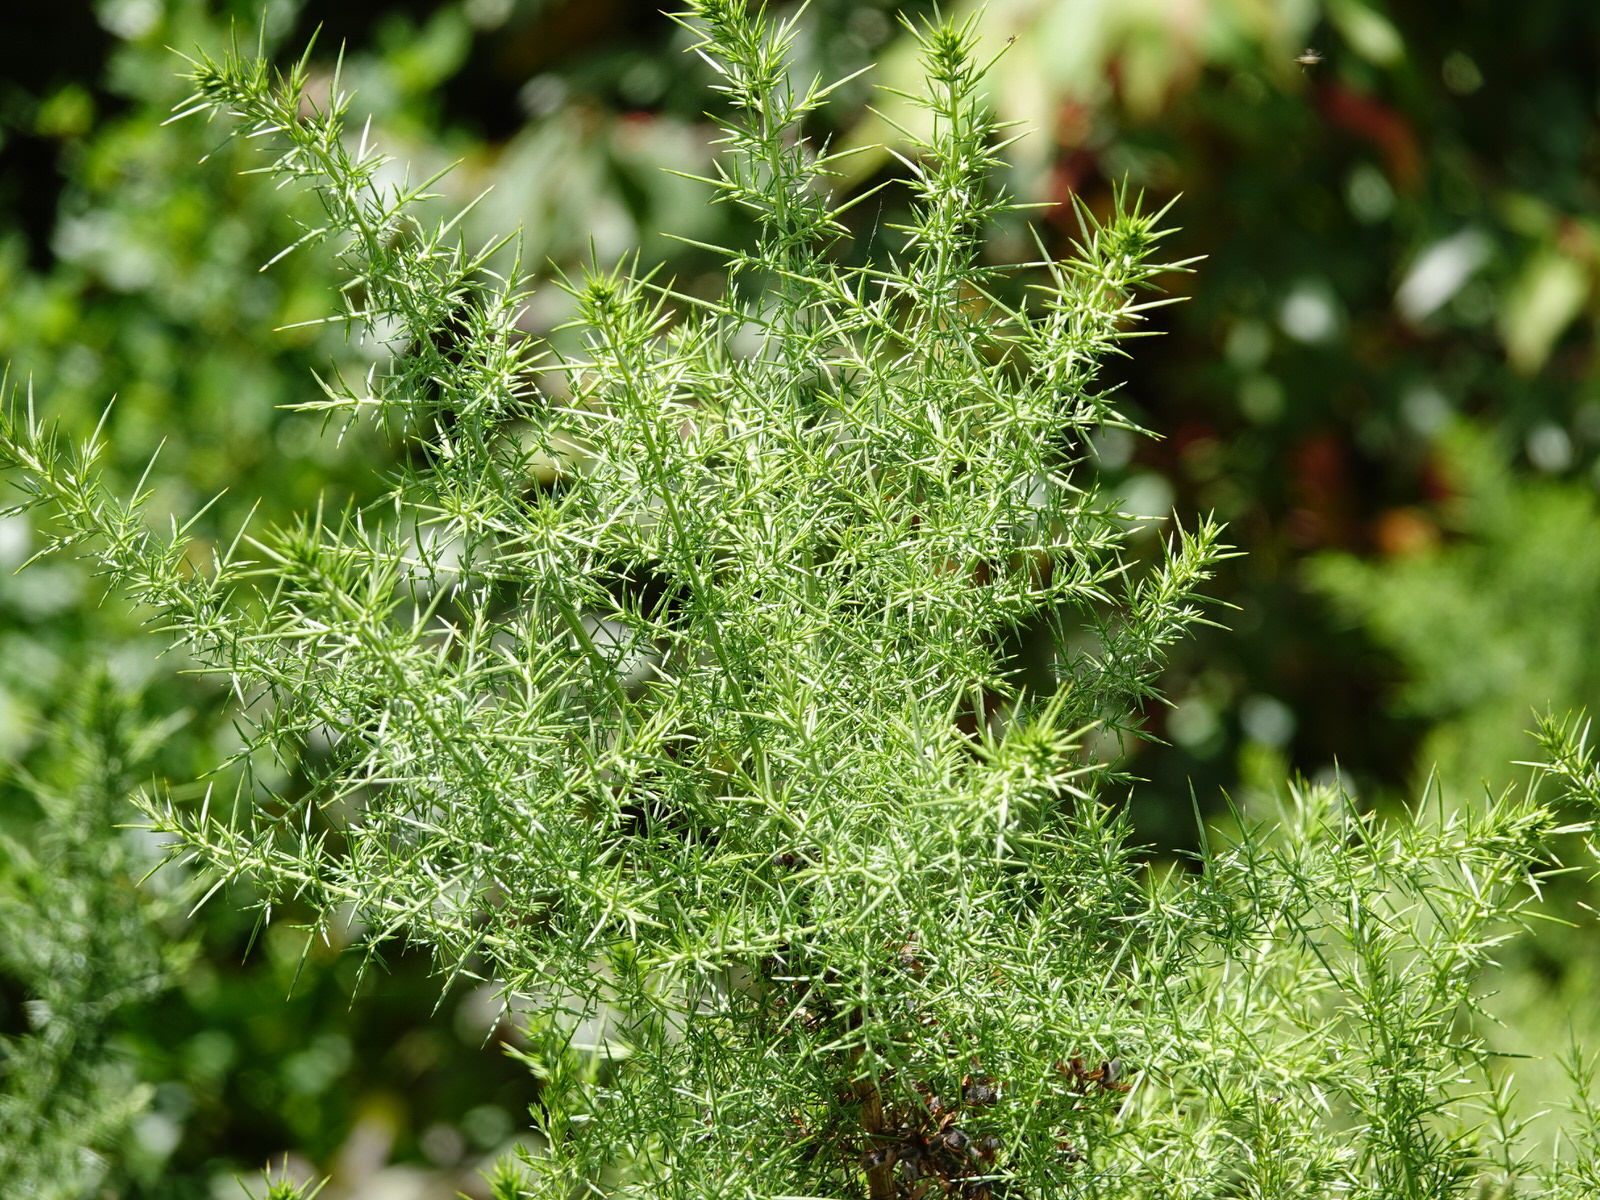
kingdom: Plantae
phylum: Tracheophyta
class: Magnoliopsida
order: Fabales
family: Fabaceae
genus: Ulex
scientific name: Ulex europaeus
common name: Common gorse
